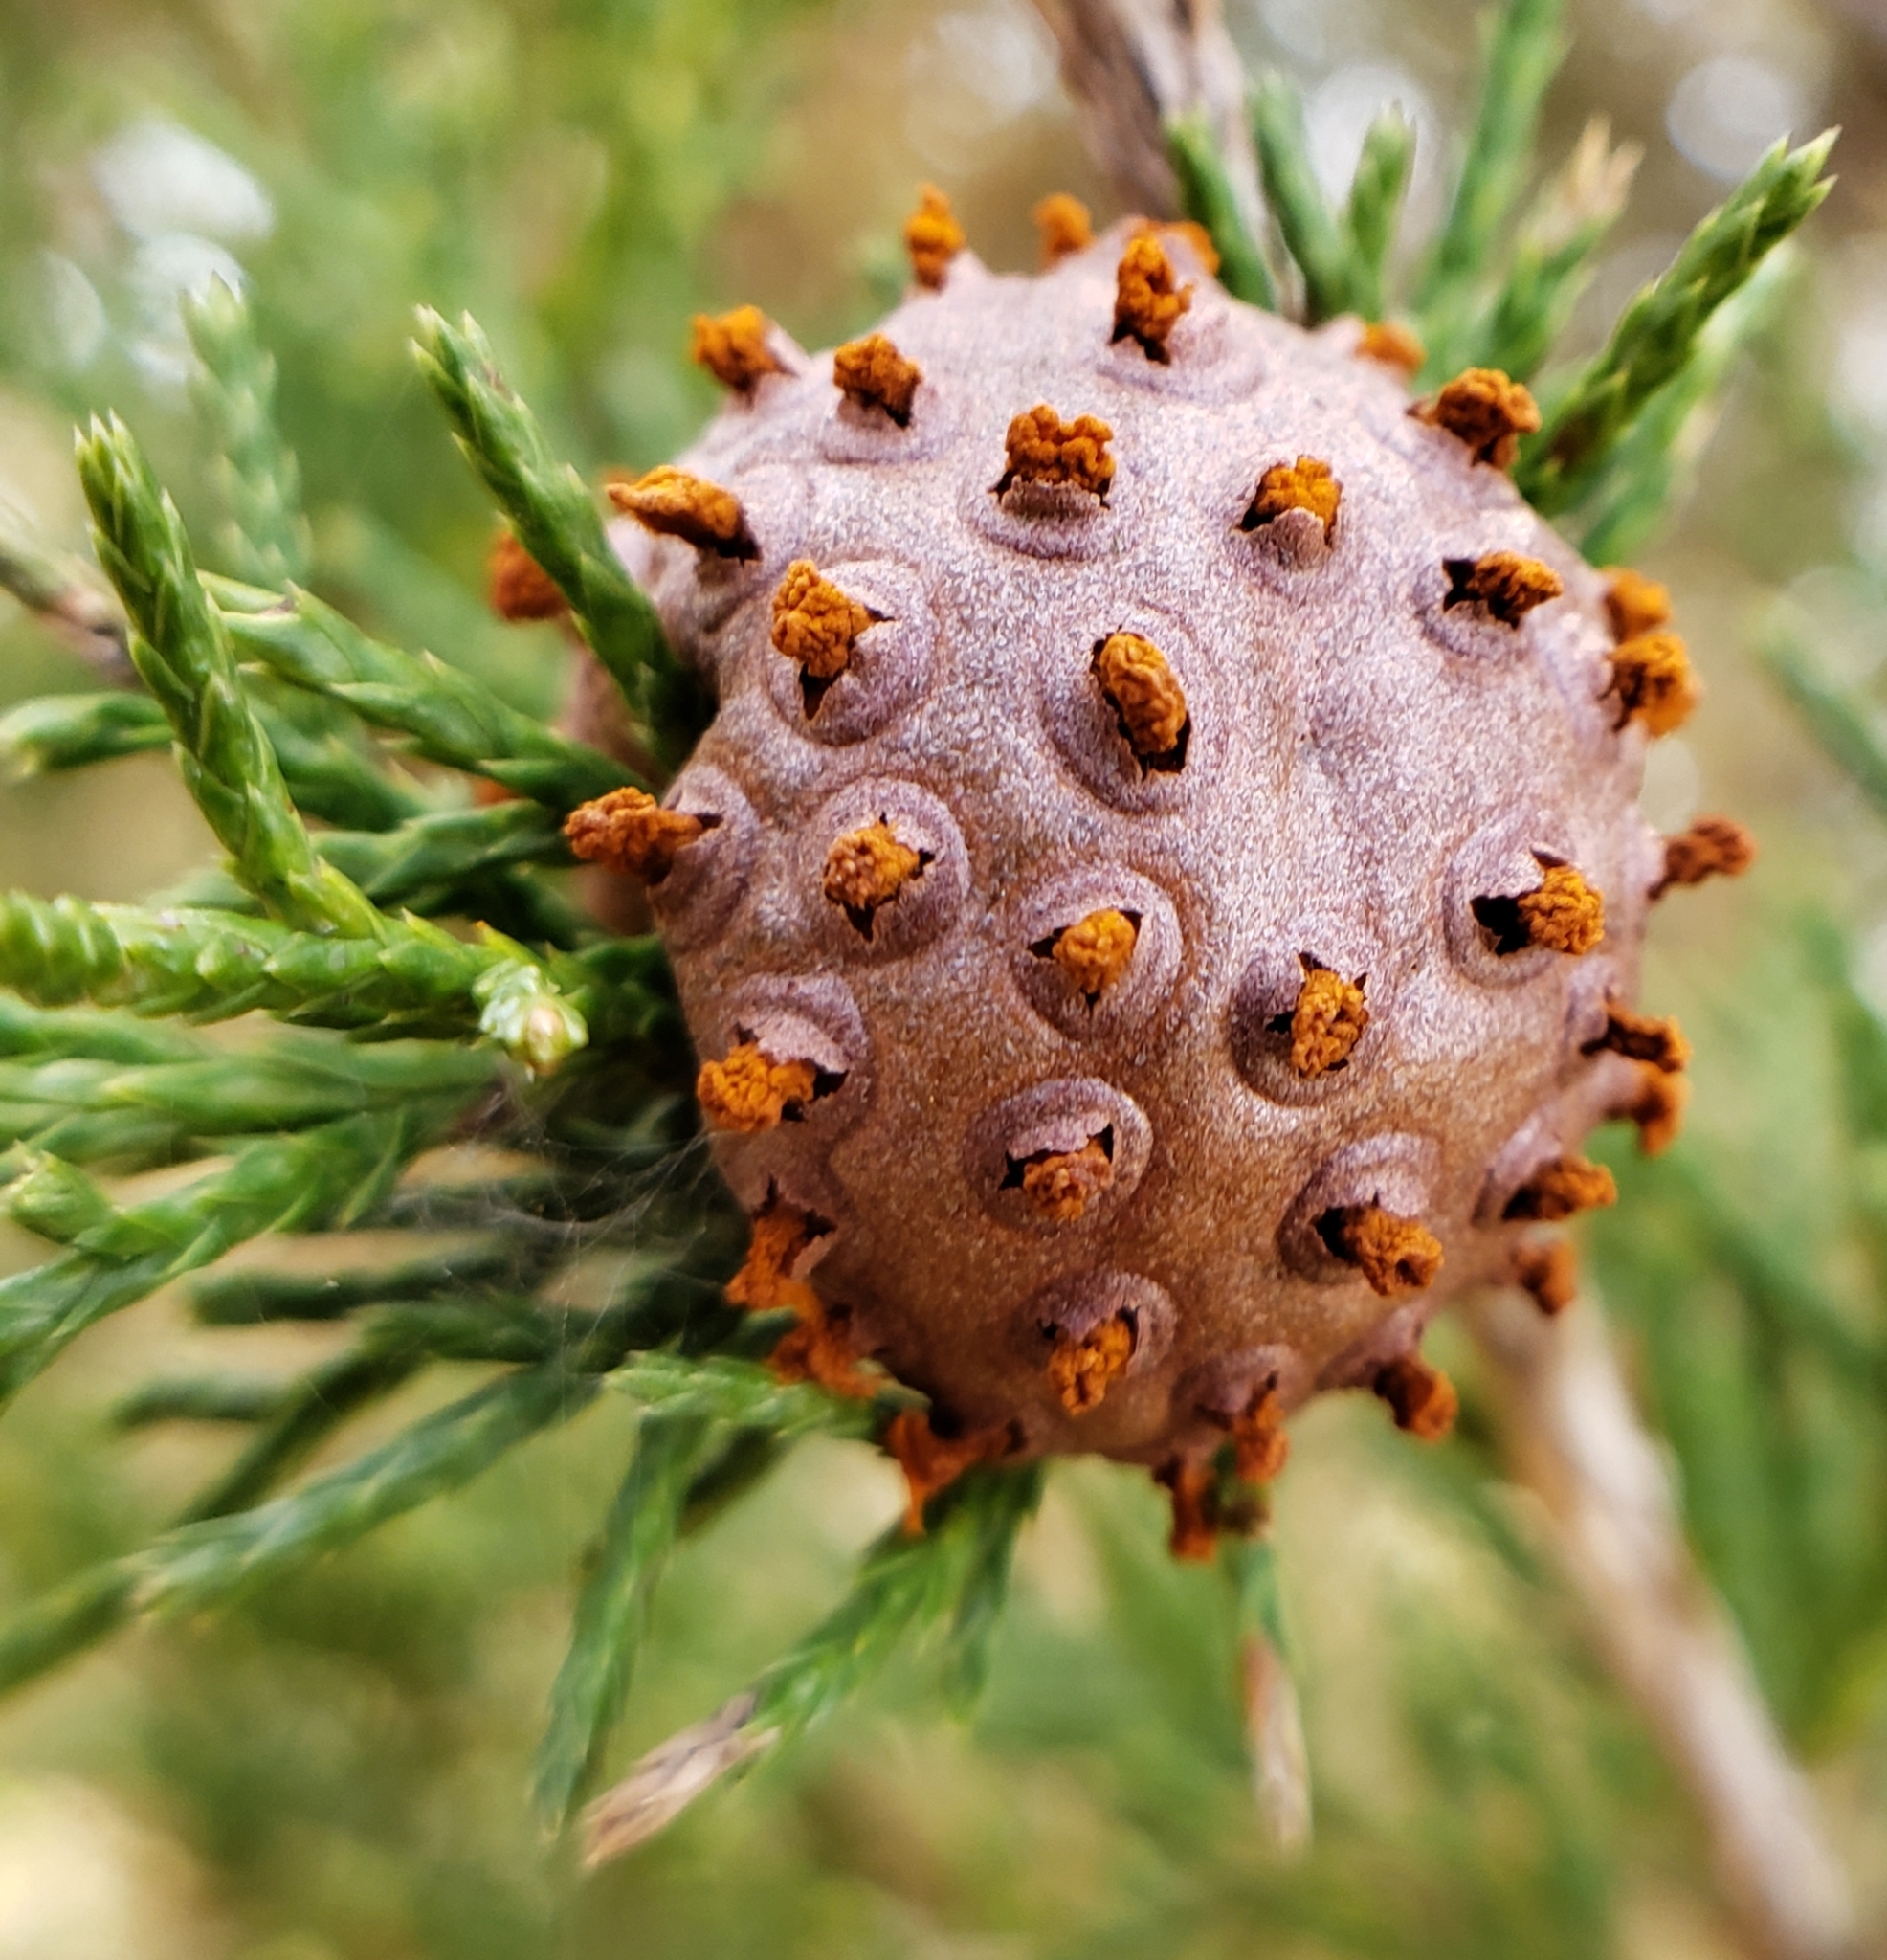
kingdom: Fungi
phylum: Basidiomycota
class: Pucciniomycetes
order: Pucciniales
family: Gymnosporangiaceae
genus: Gymnosporangium
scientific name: Gymnosporangium juniperi-virginianae
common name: Juniper-apple rust
